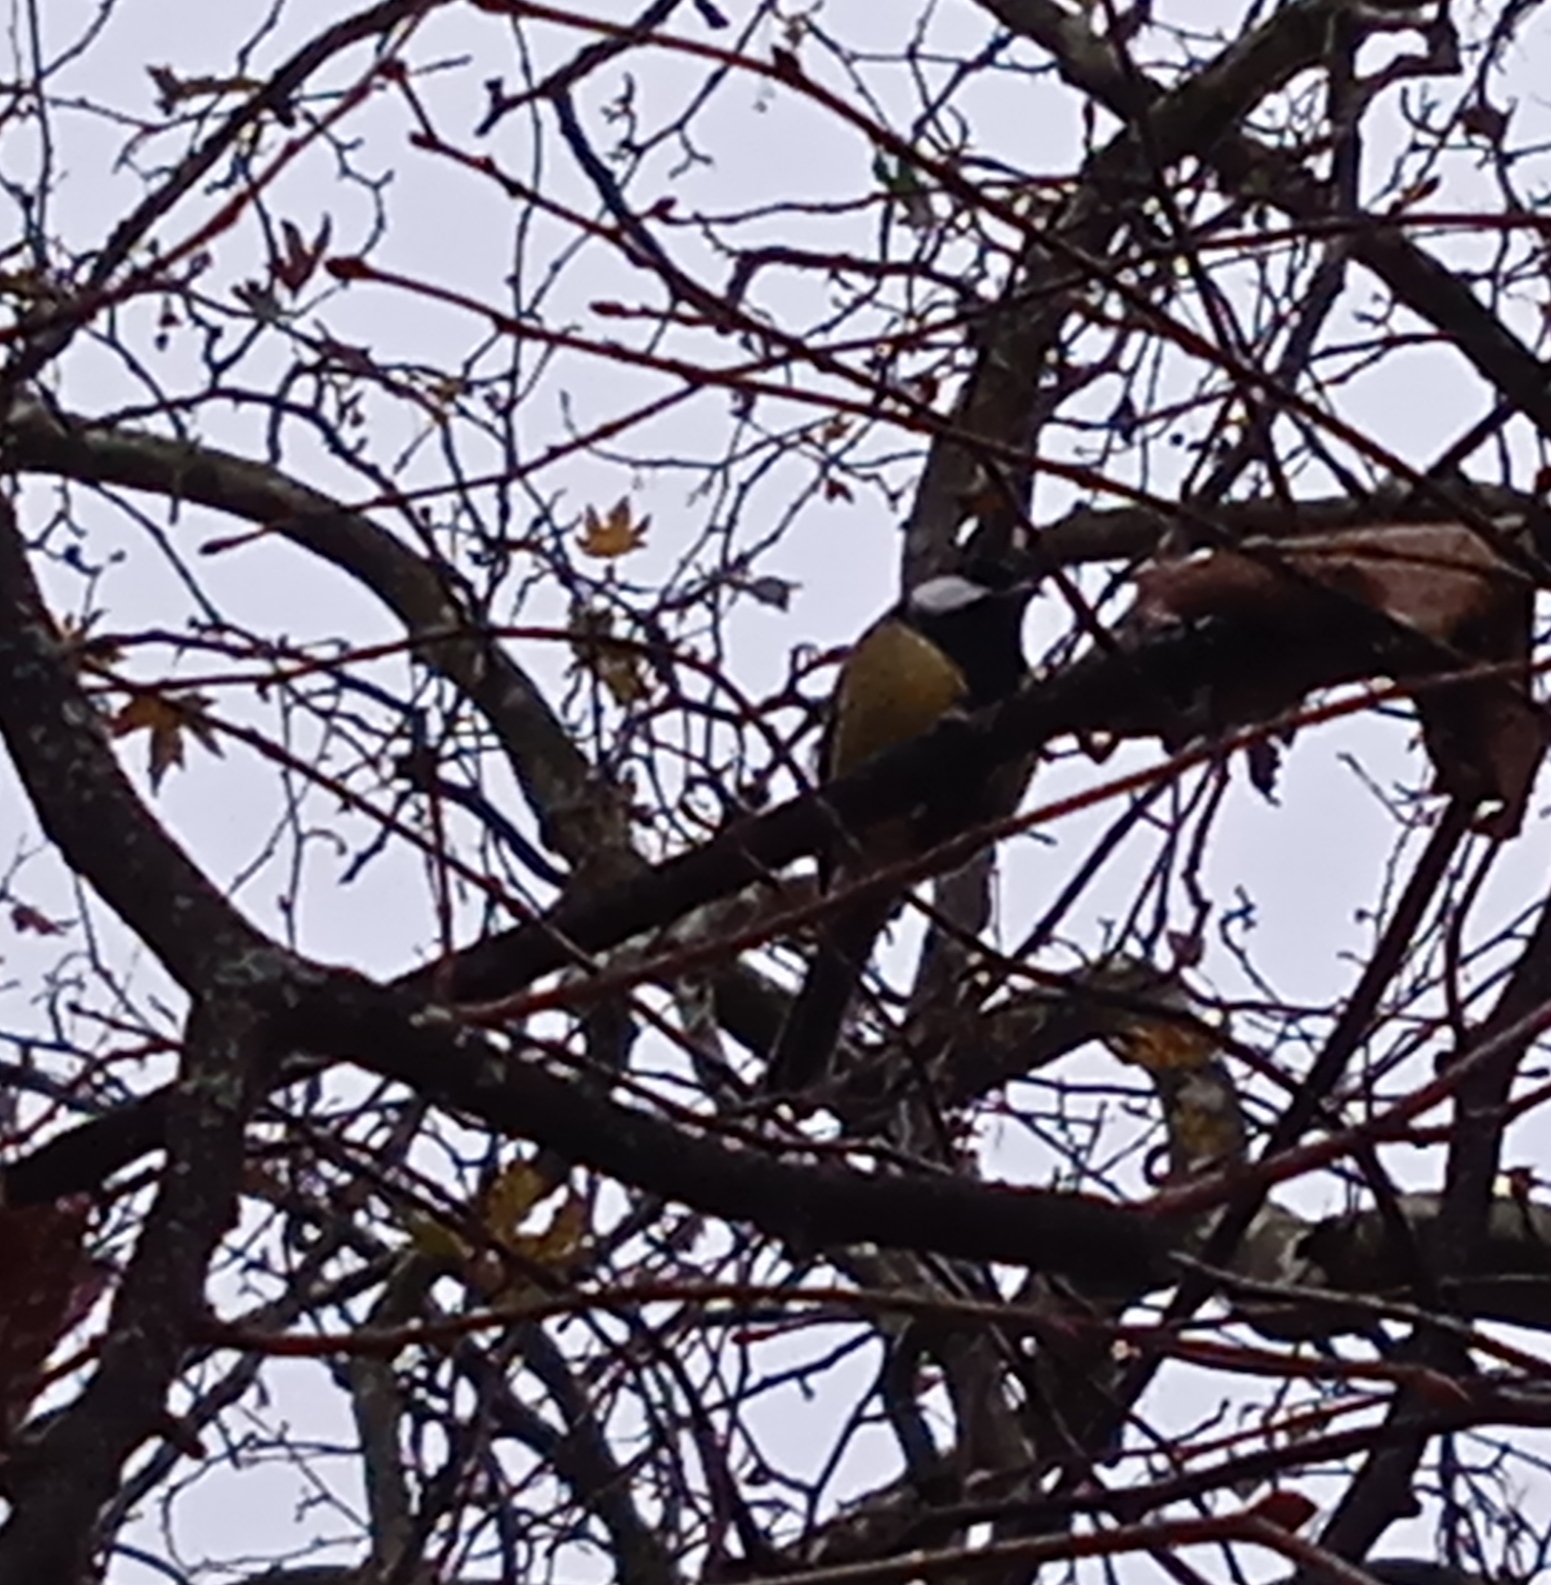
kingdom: Animalia
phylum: Chordata
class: Aves
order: Passeriformes
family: Paridae
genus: Parus
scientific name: Parus major
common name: Great tit
